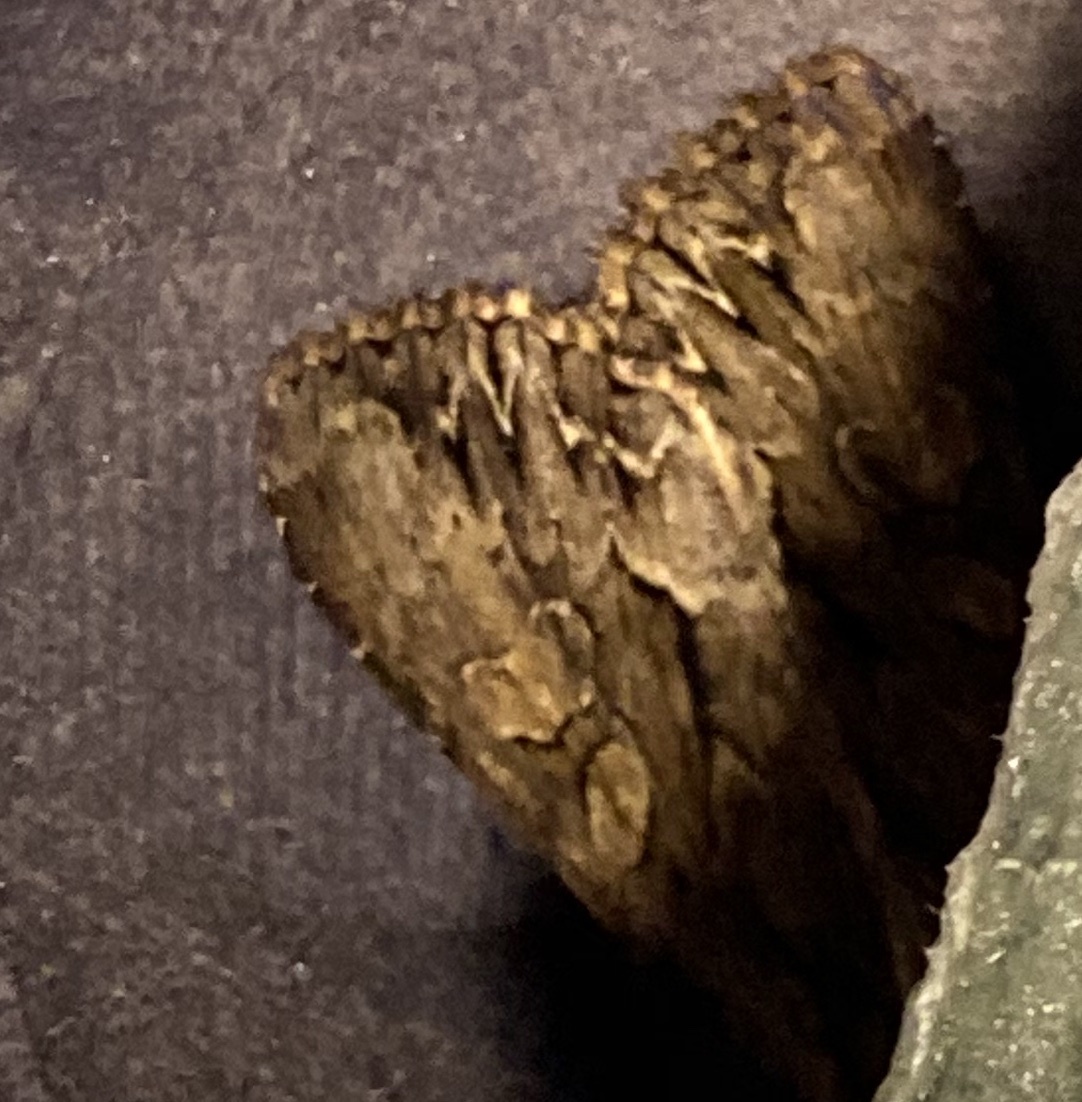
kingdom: Animalia
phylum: Arthropoda
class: Insecta
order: Lepidoptera
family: Noctuidae
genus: Apamea
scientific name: Apamea monoglypha
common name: Dark arches
